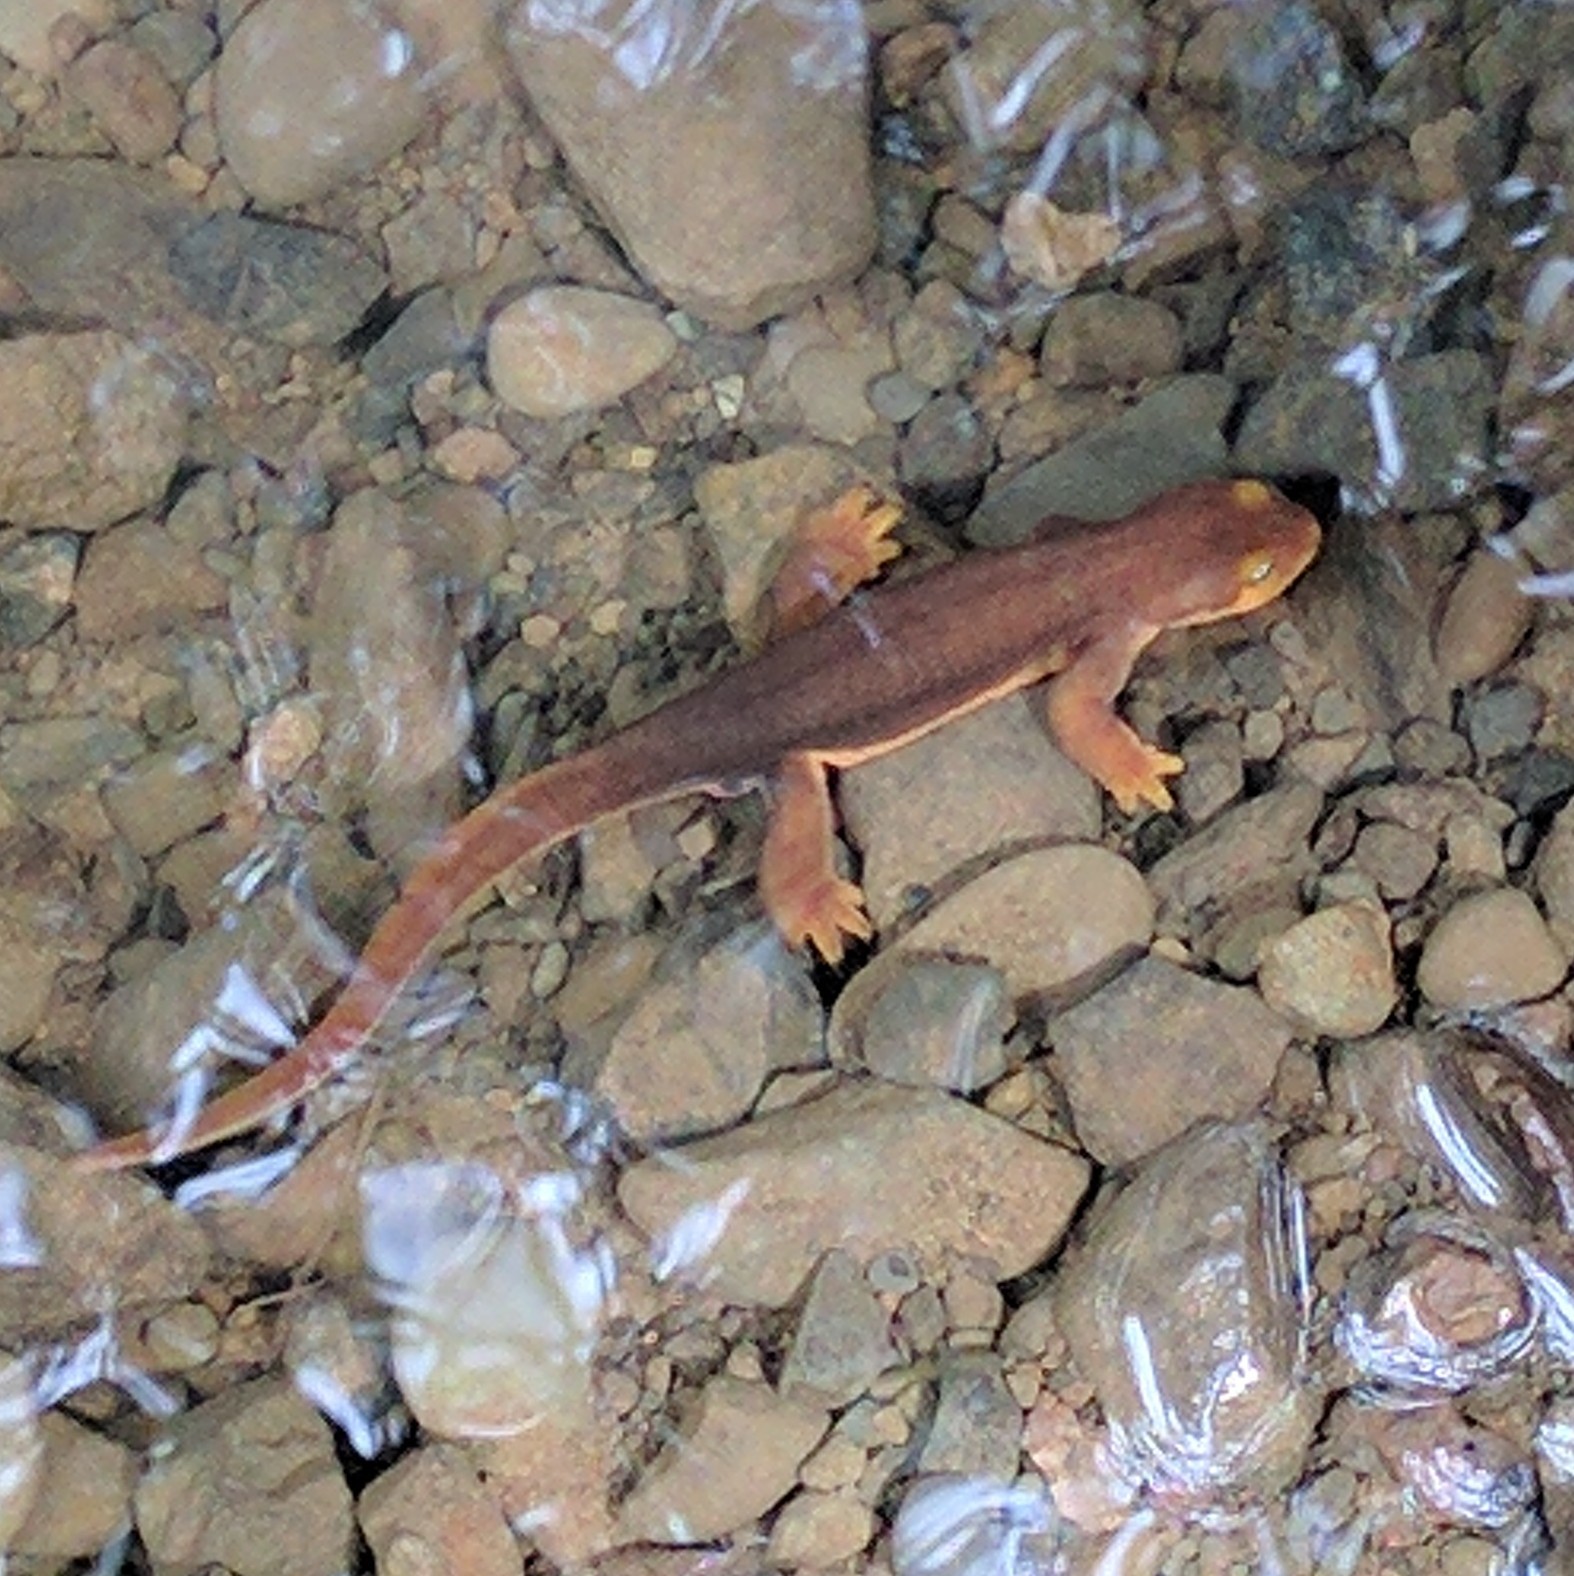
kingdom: Animalia
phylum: Chordata
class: Amphibia
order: Caudata
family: Salamandridae
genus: Taricha
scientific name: Taricha torosa
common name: California newt
